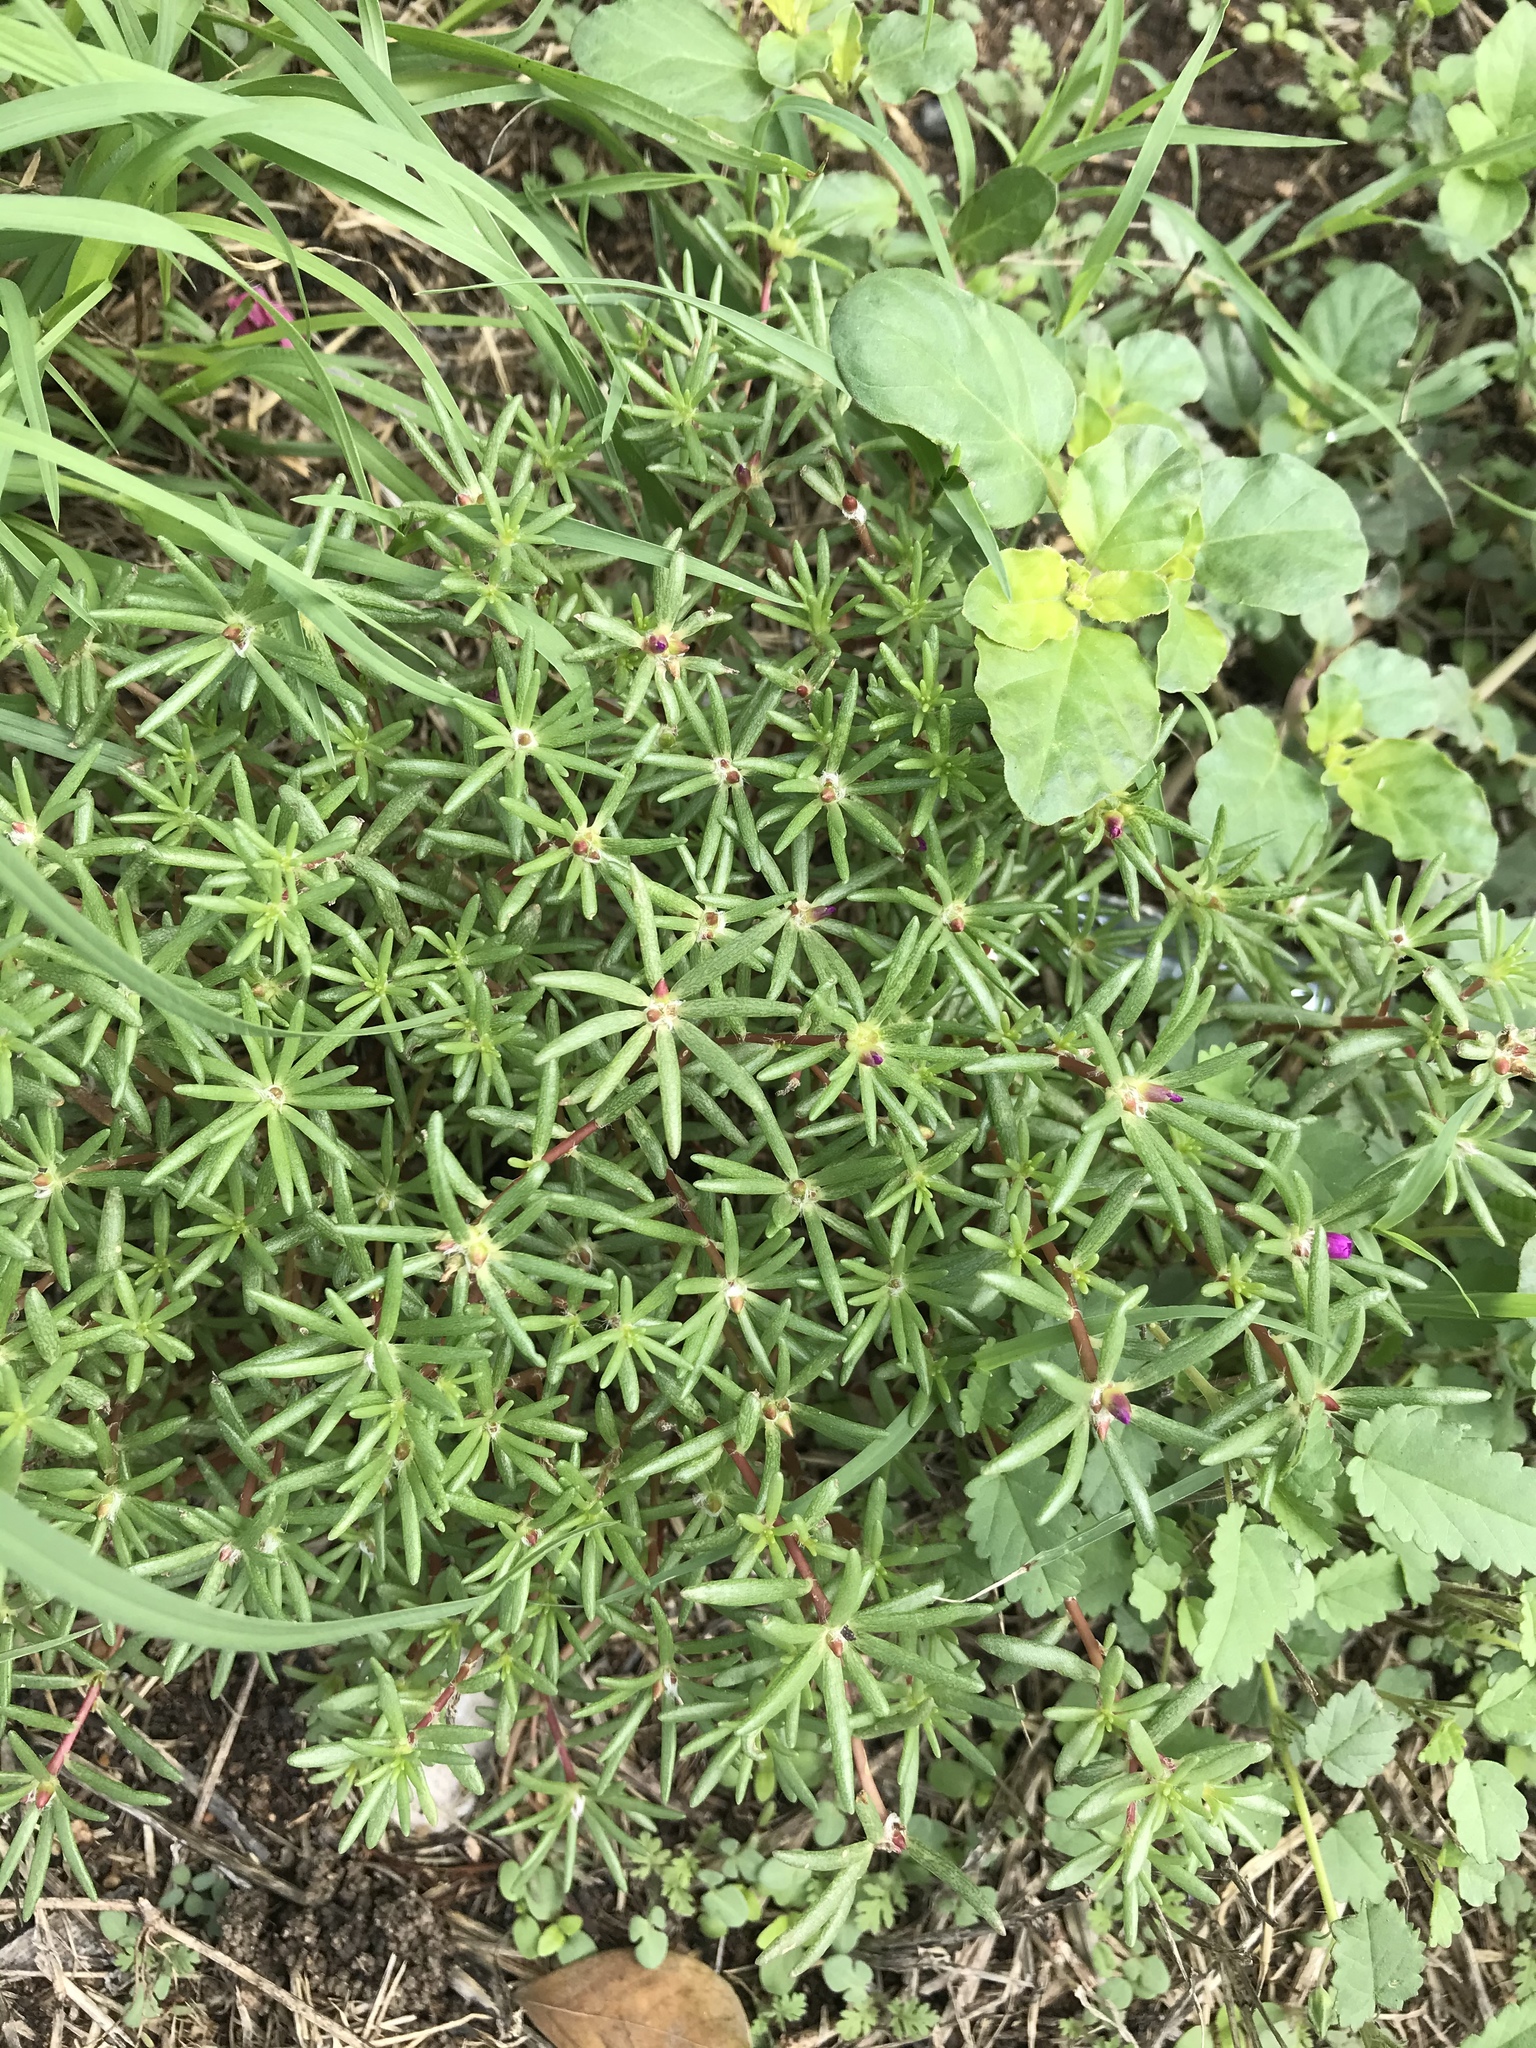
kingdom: Plantae
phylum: Tracheophyta
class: Magnoliopsida
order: Caryophyllales
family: Portulacaceae
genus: Portulaca
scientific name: Portulaca pilosa
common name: Kiss me quick
